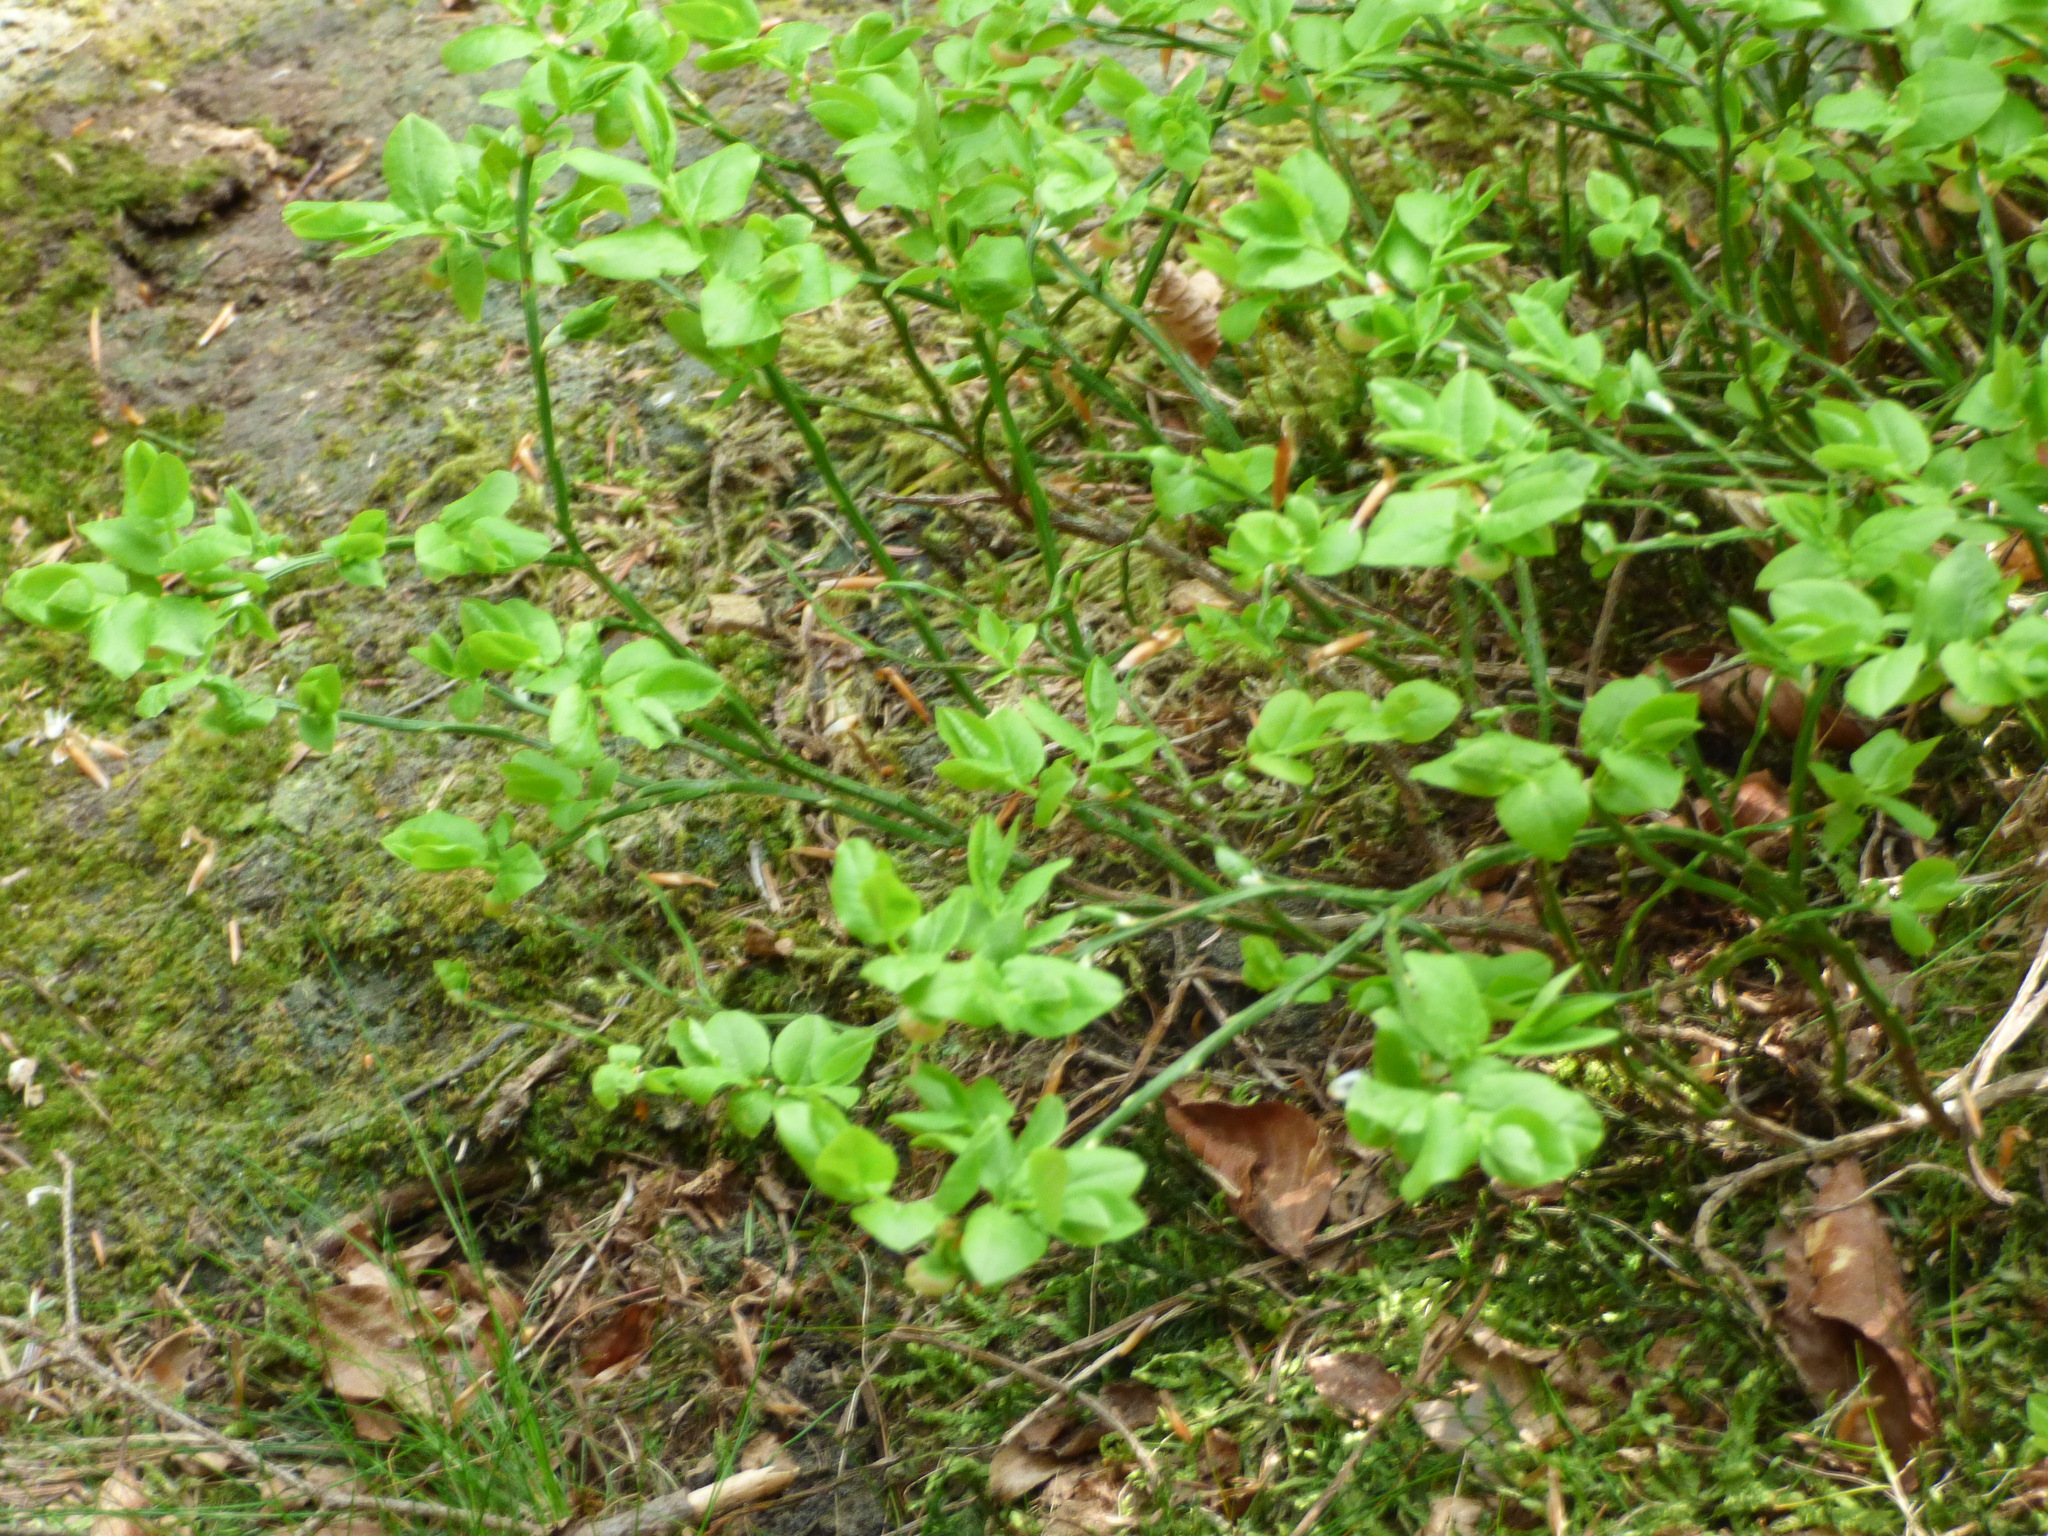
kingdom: Plantae
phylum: Tracheophyta
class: Magnoliopsida
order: Ericales
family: Ericaceae
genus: Vaccinium
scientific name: Vaccinium myrtillus
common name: Bilberry
